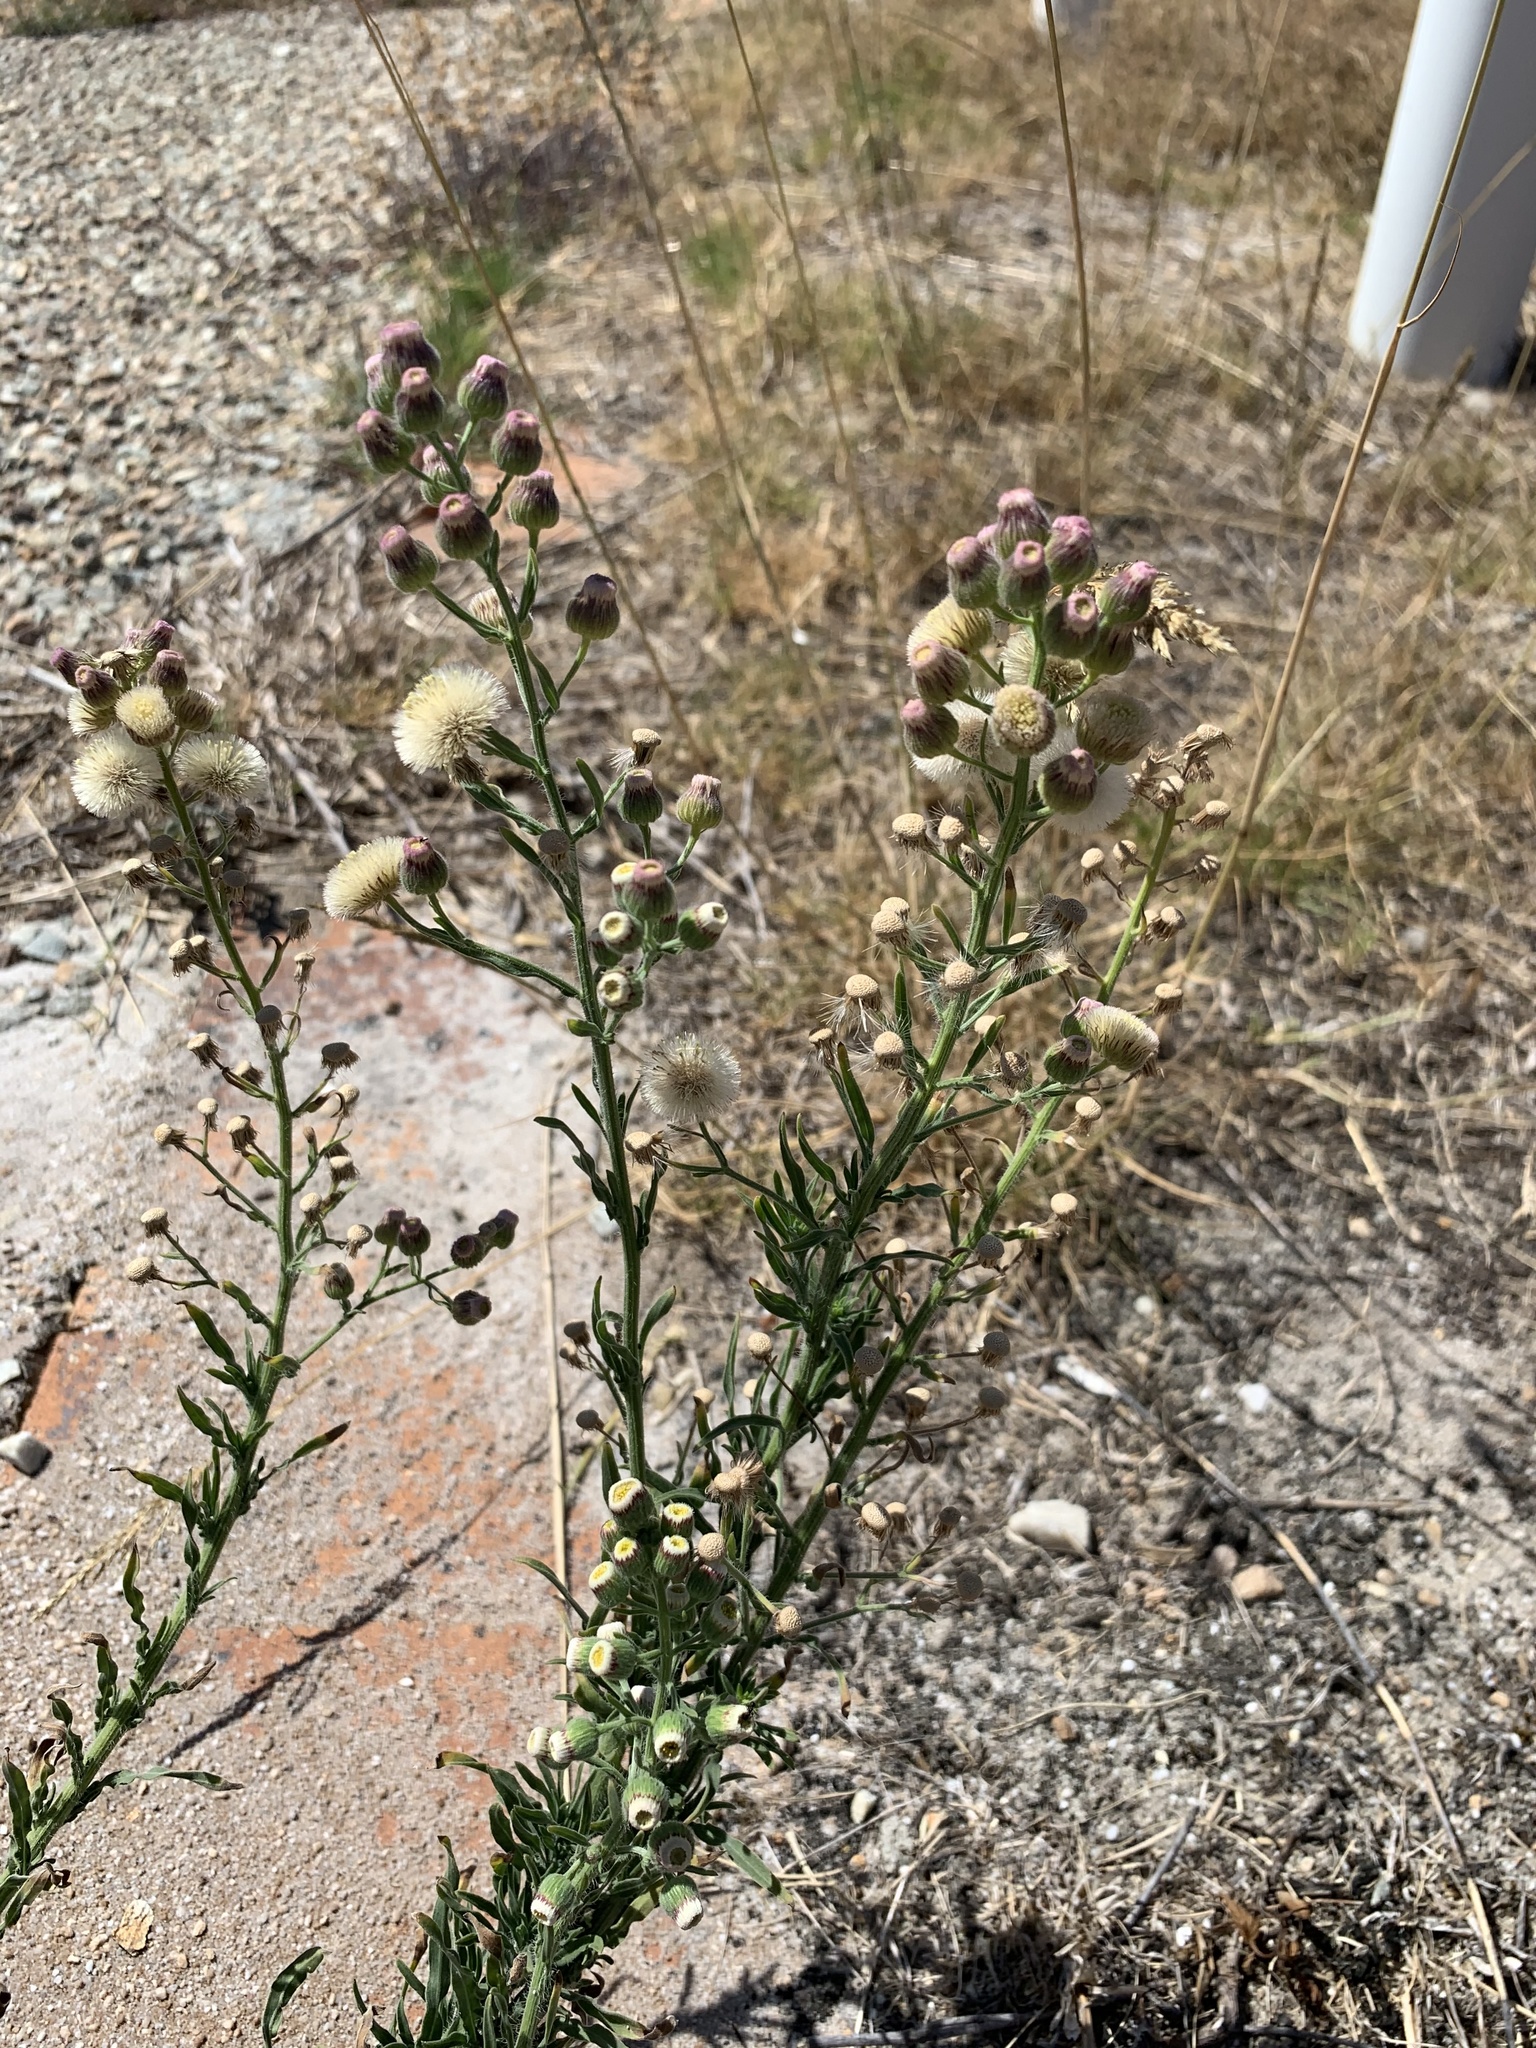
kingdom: Plantae
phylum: Tracheophyta
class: Magnoliopsida
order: Asterales
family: Asteraceae
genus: Erigeron
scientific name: Erigeron bonariensis
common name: Argentine fleabane
